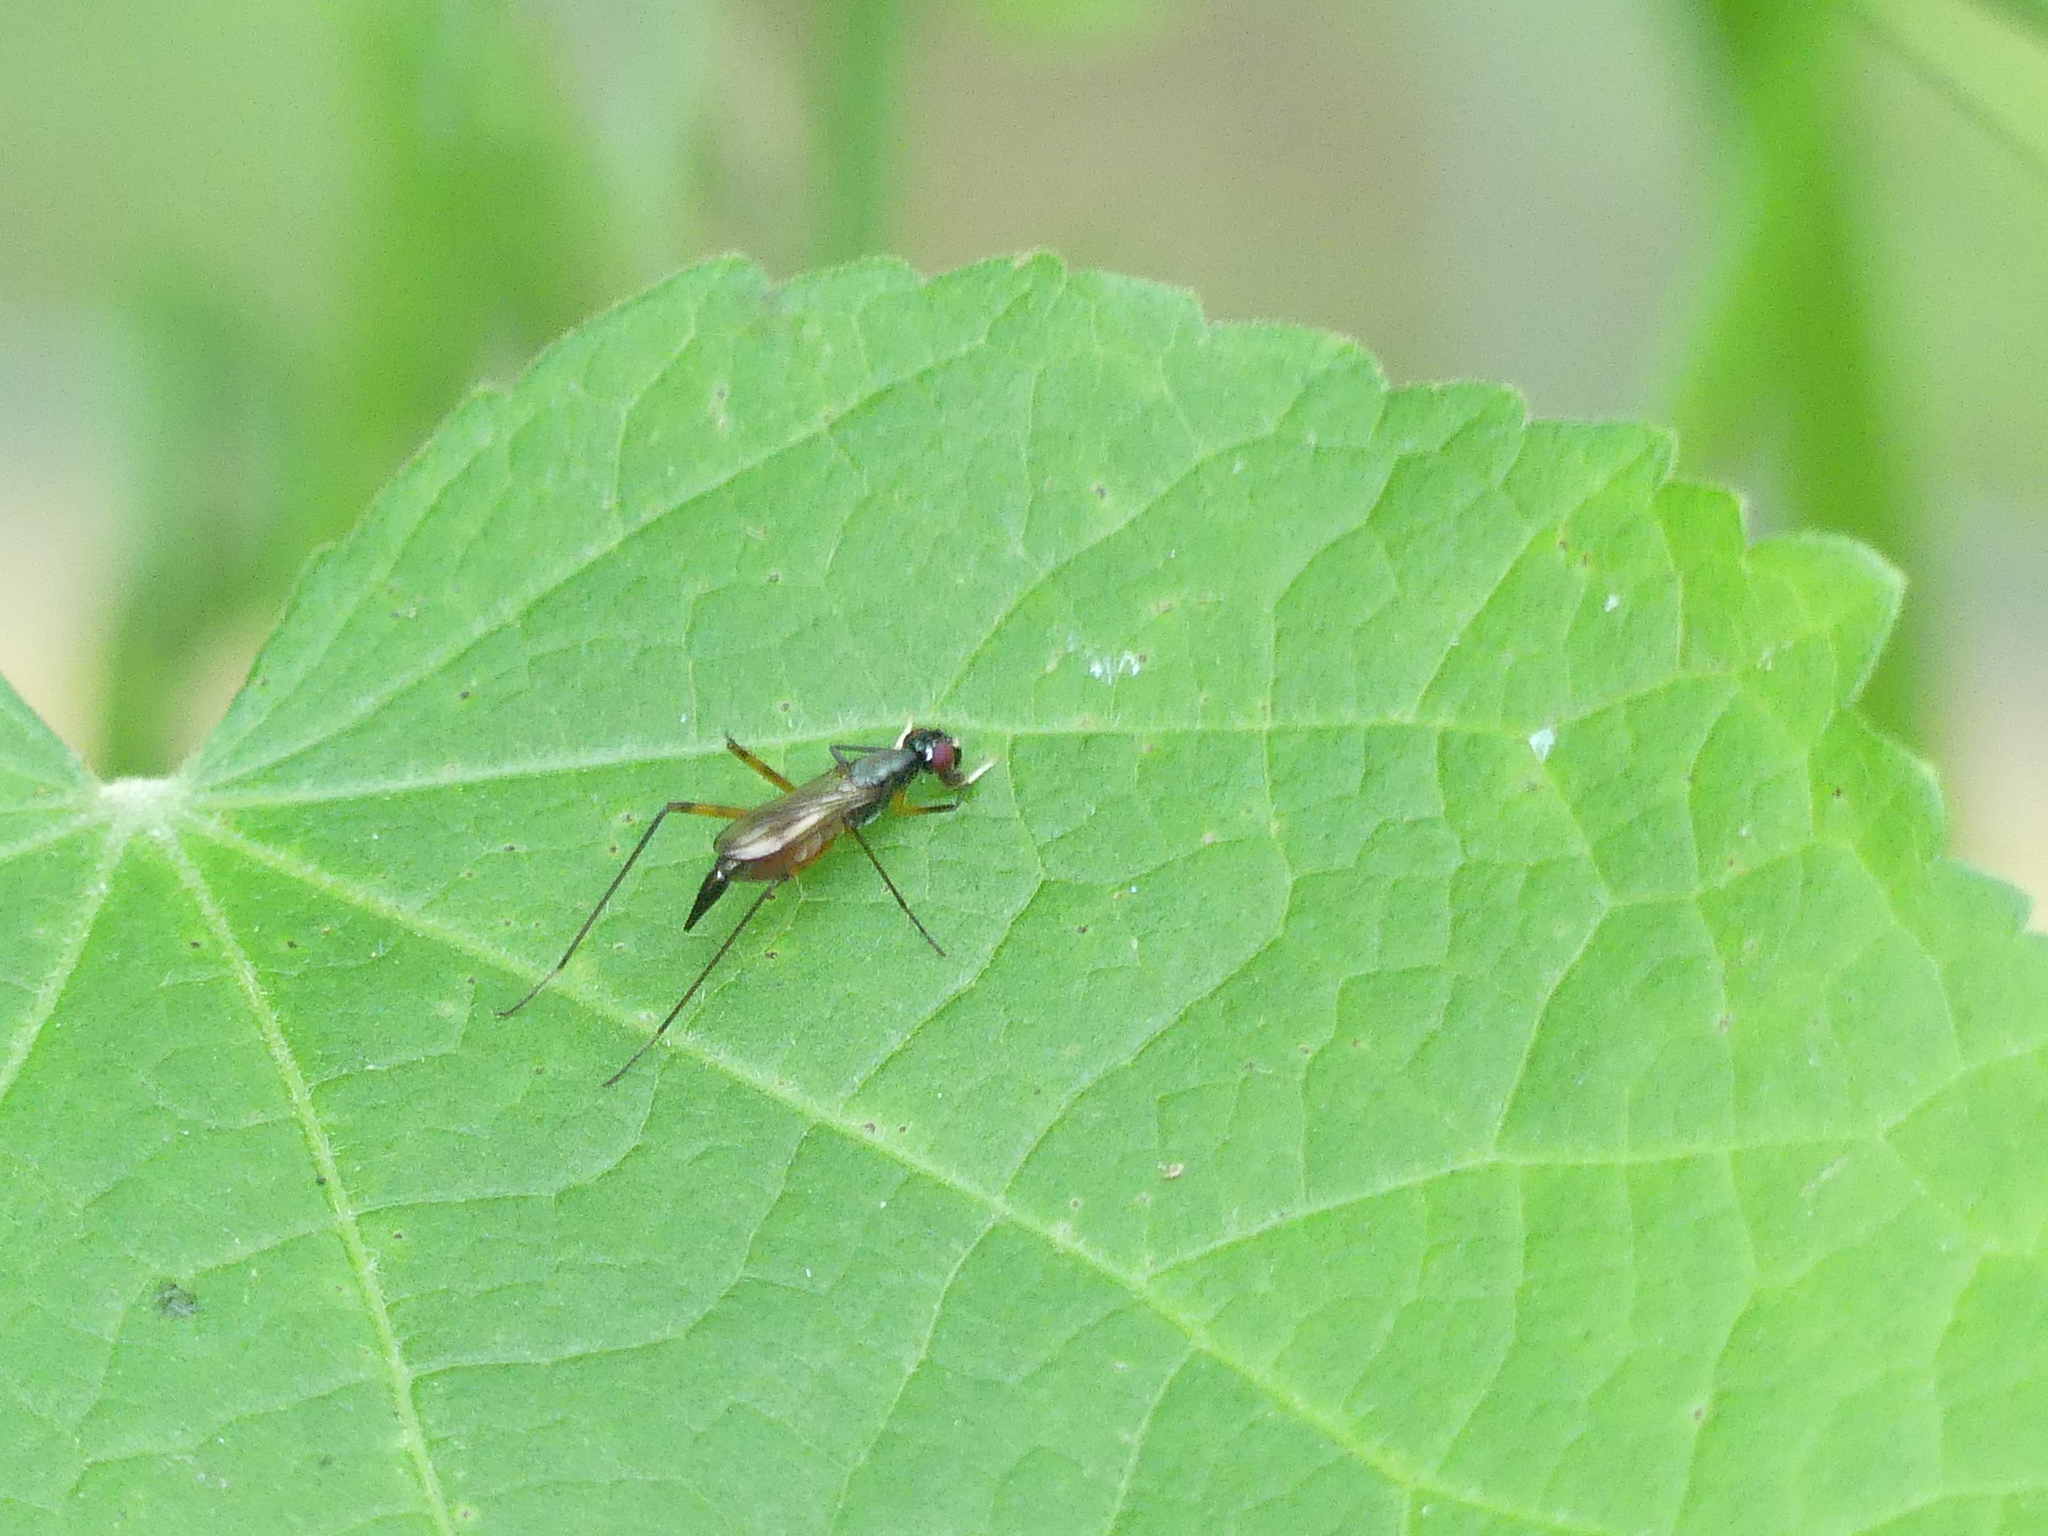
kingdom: Animalia
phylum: Arthropoda
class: Insecta
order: Diptera
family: Micropezidae
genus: Rainieria
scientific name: Rainieria antennaepes
